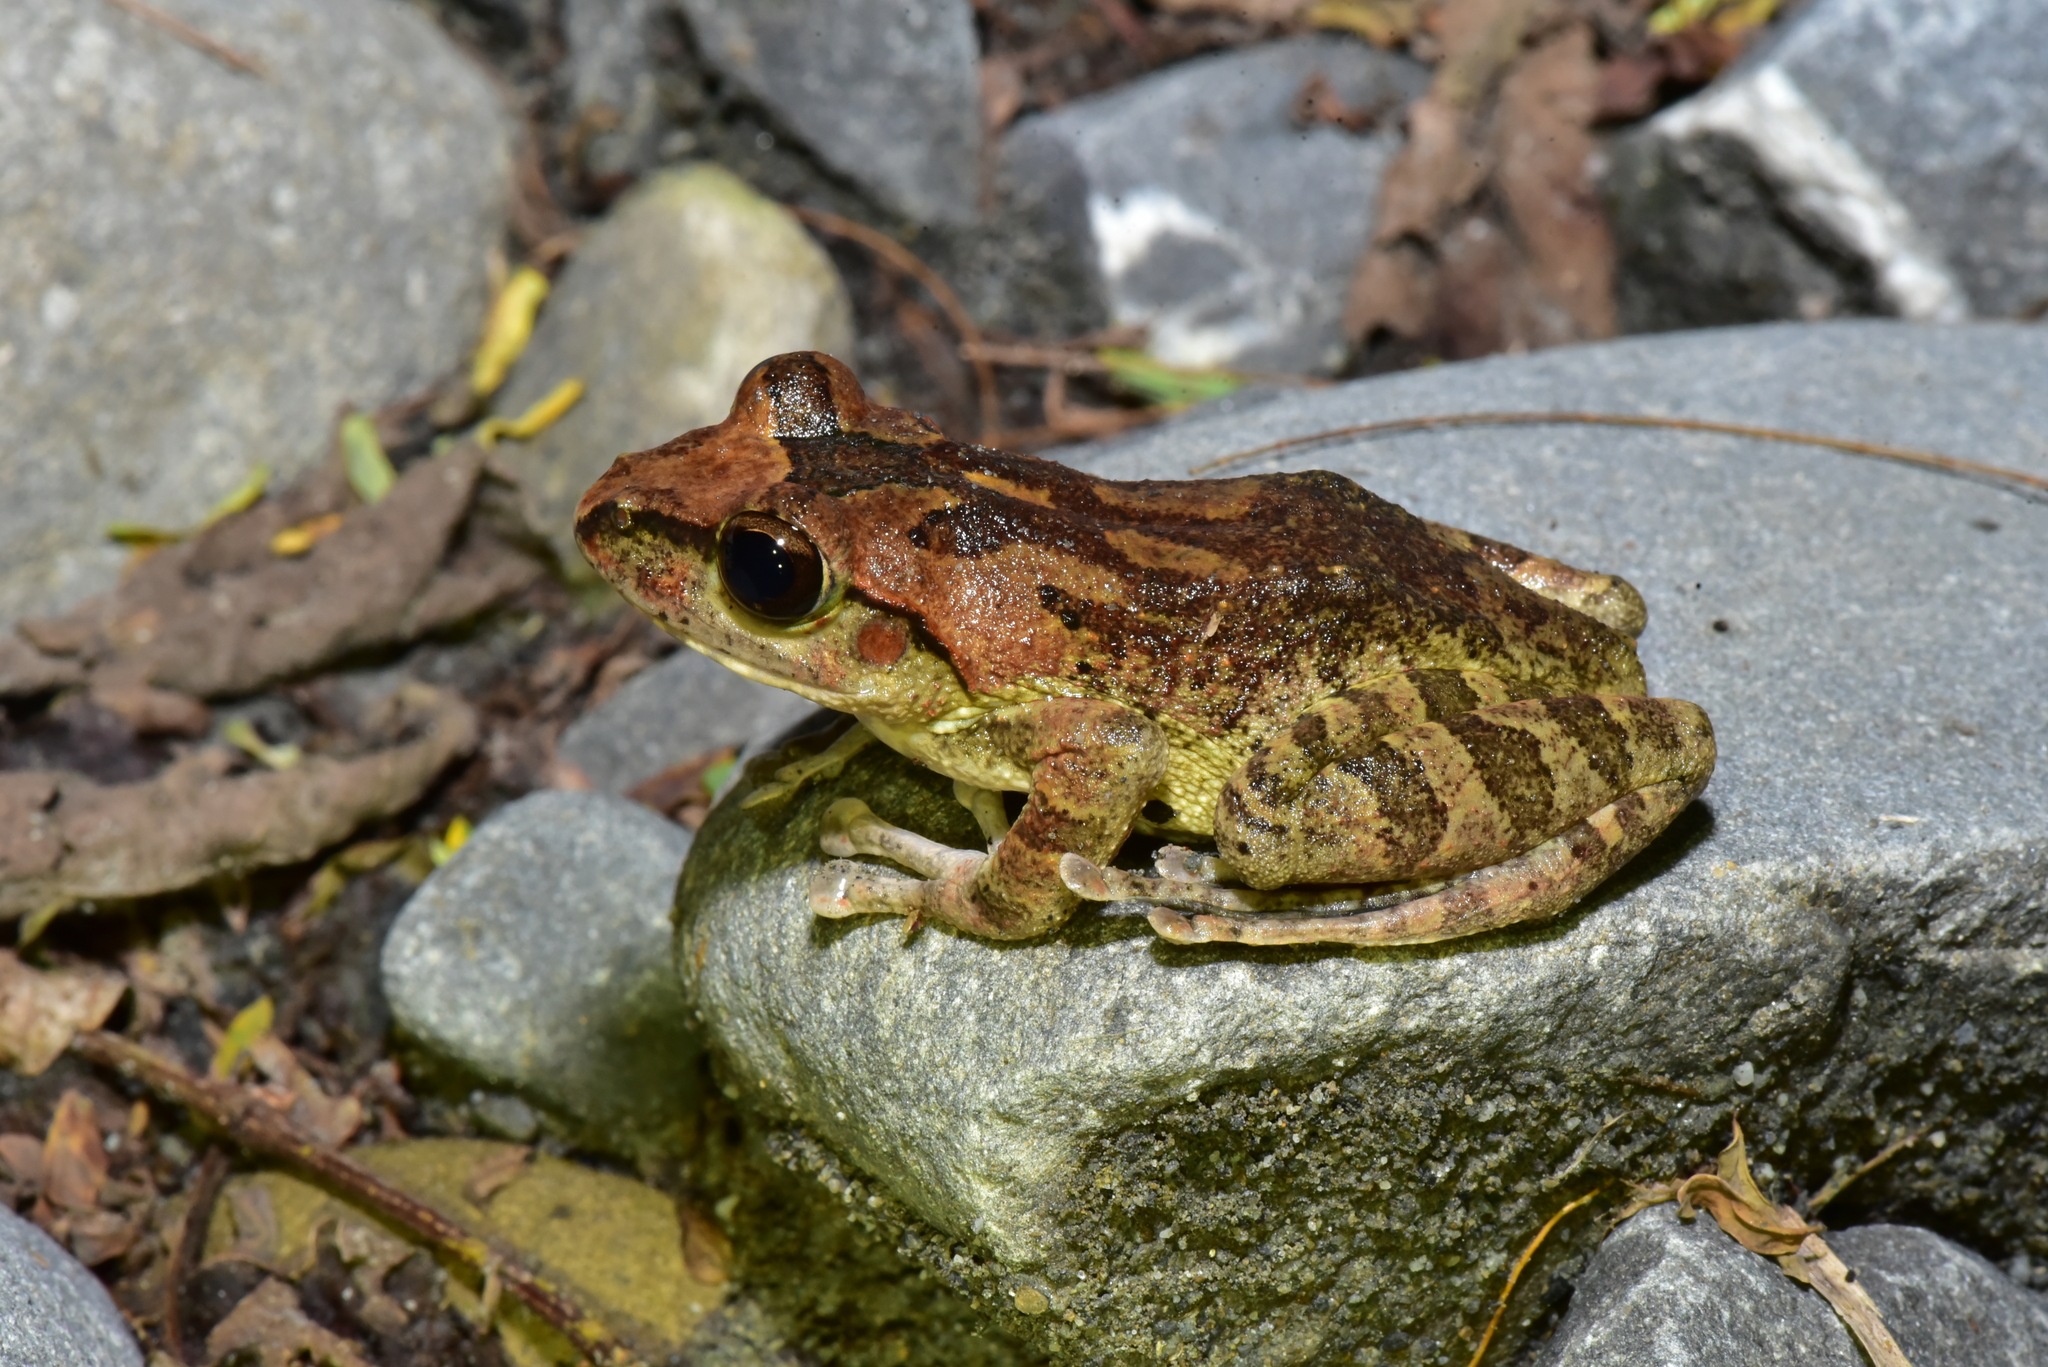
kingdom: Animalia
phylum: Chordata
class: Amphibia
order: Anura
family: Rhacophoridae
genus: Buergeria
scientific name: Buergeria robusta
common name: Brown treefrog
